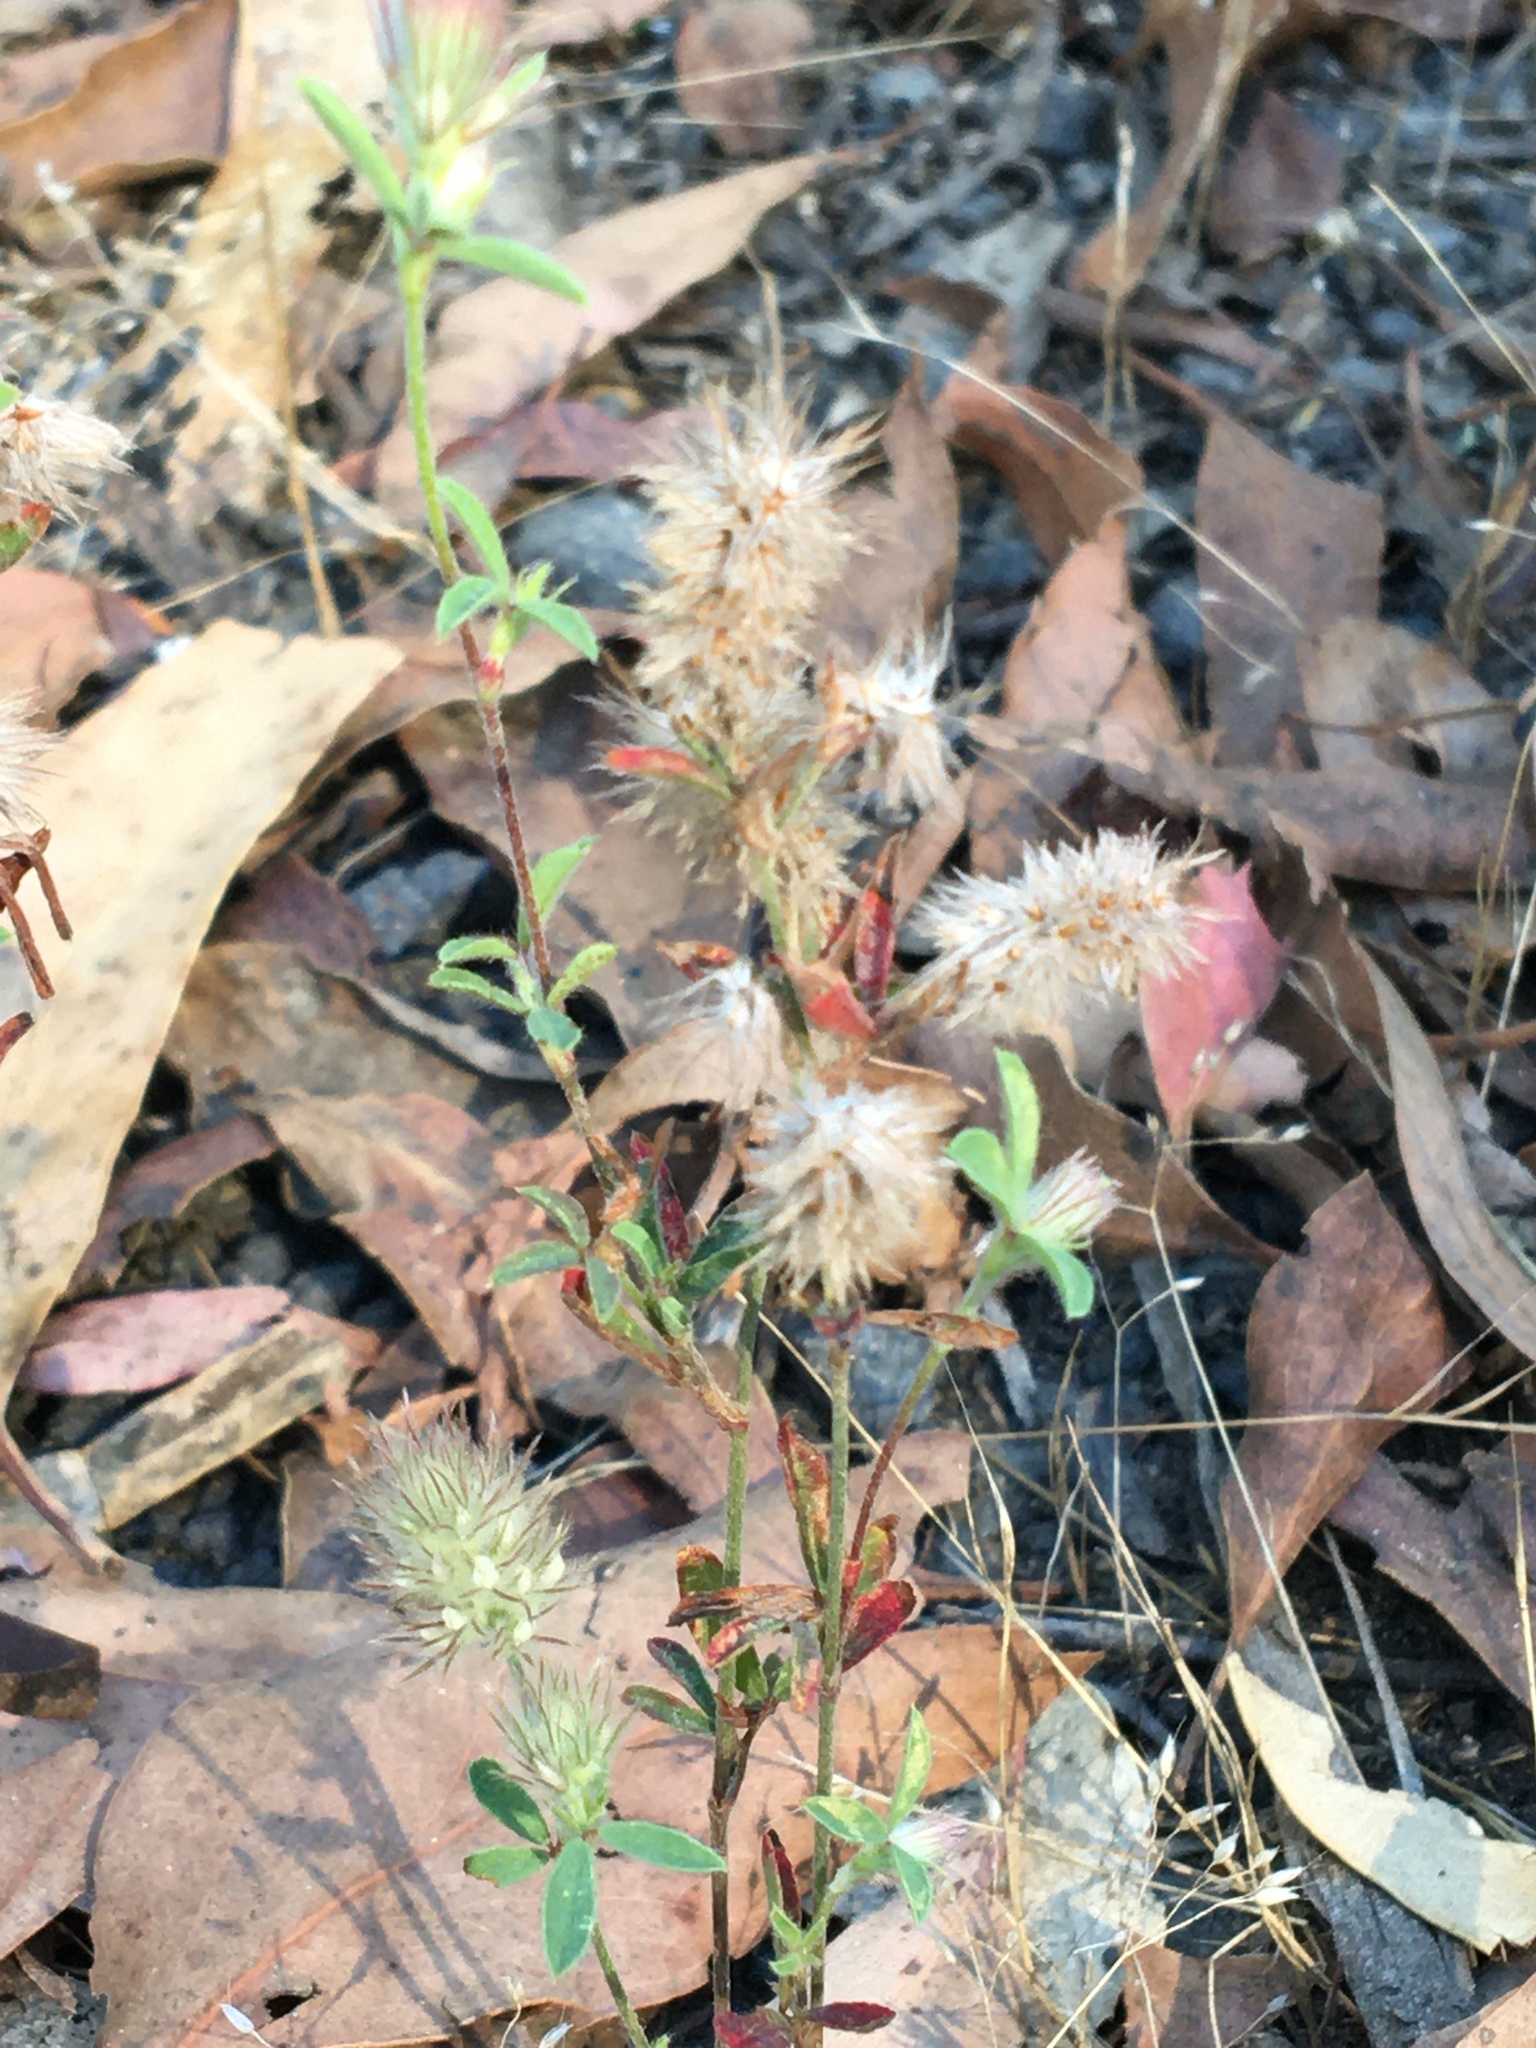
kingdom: Plantae
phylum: Tracheophyta
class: Magnoliopsida
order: Fabales
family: Fabaceae
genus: Trifolium
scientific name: Trifolium arvense
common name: Hare's-foot clover
